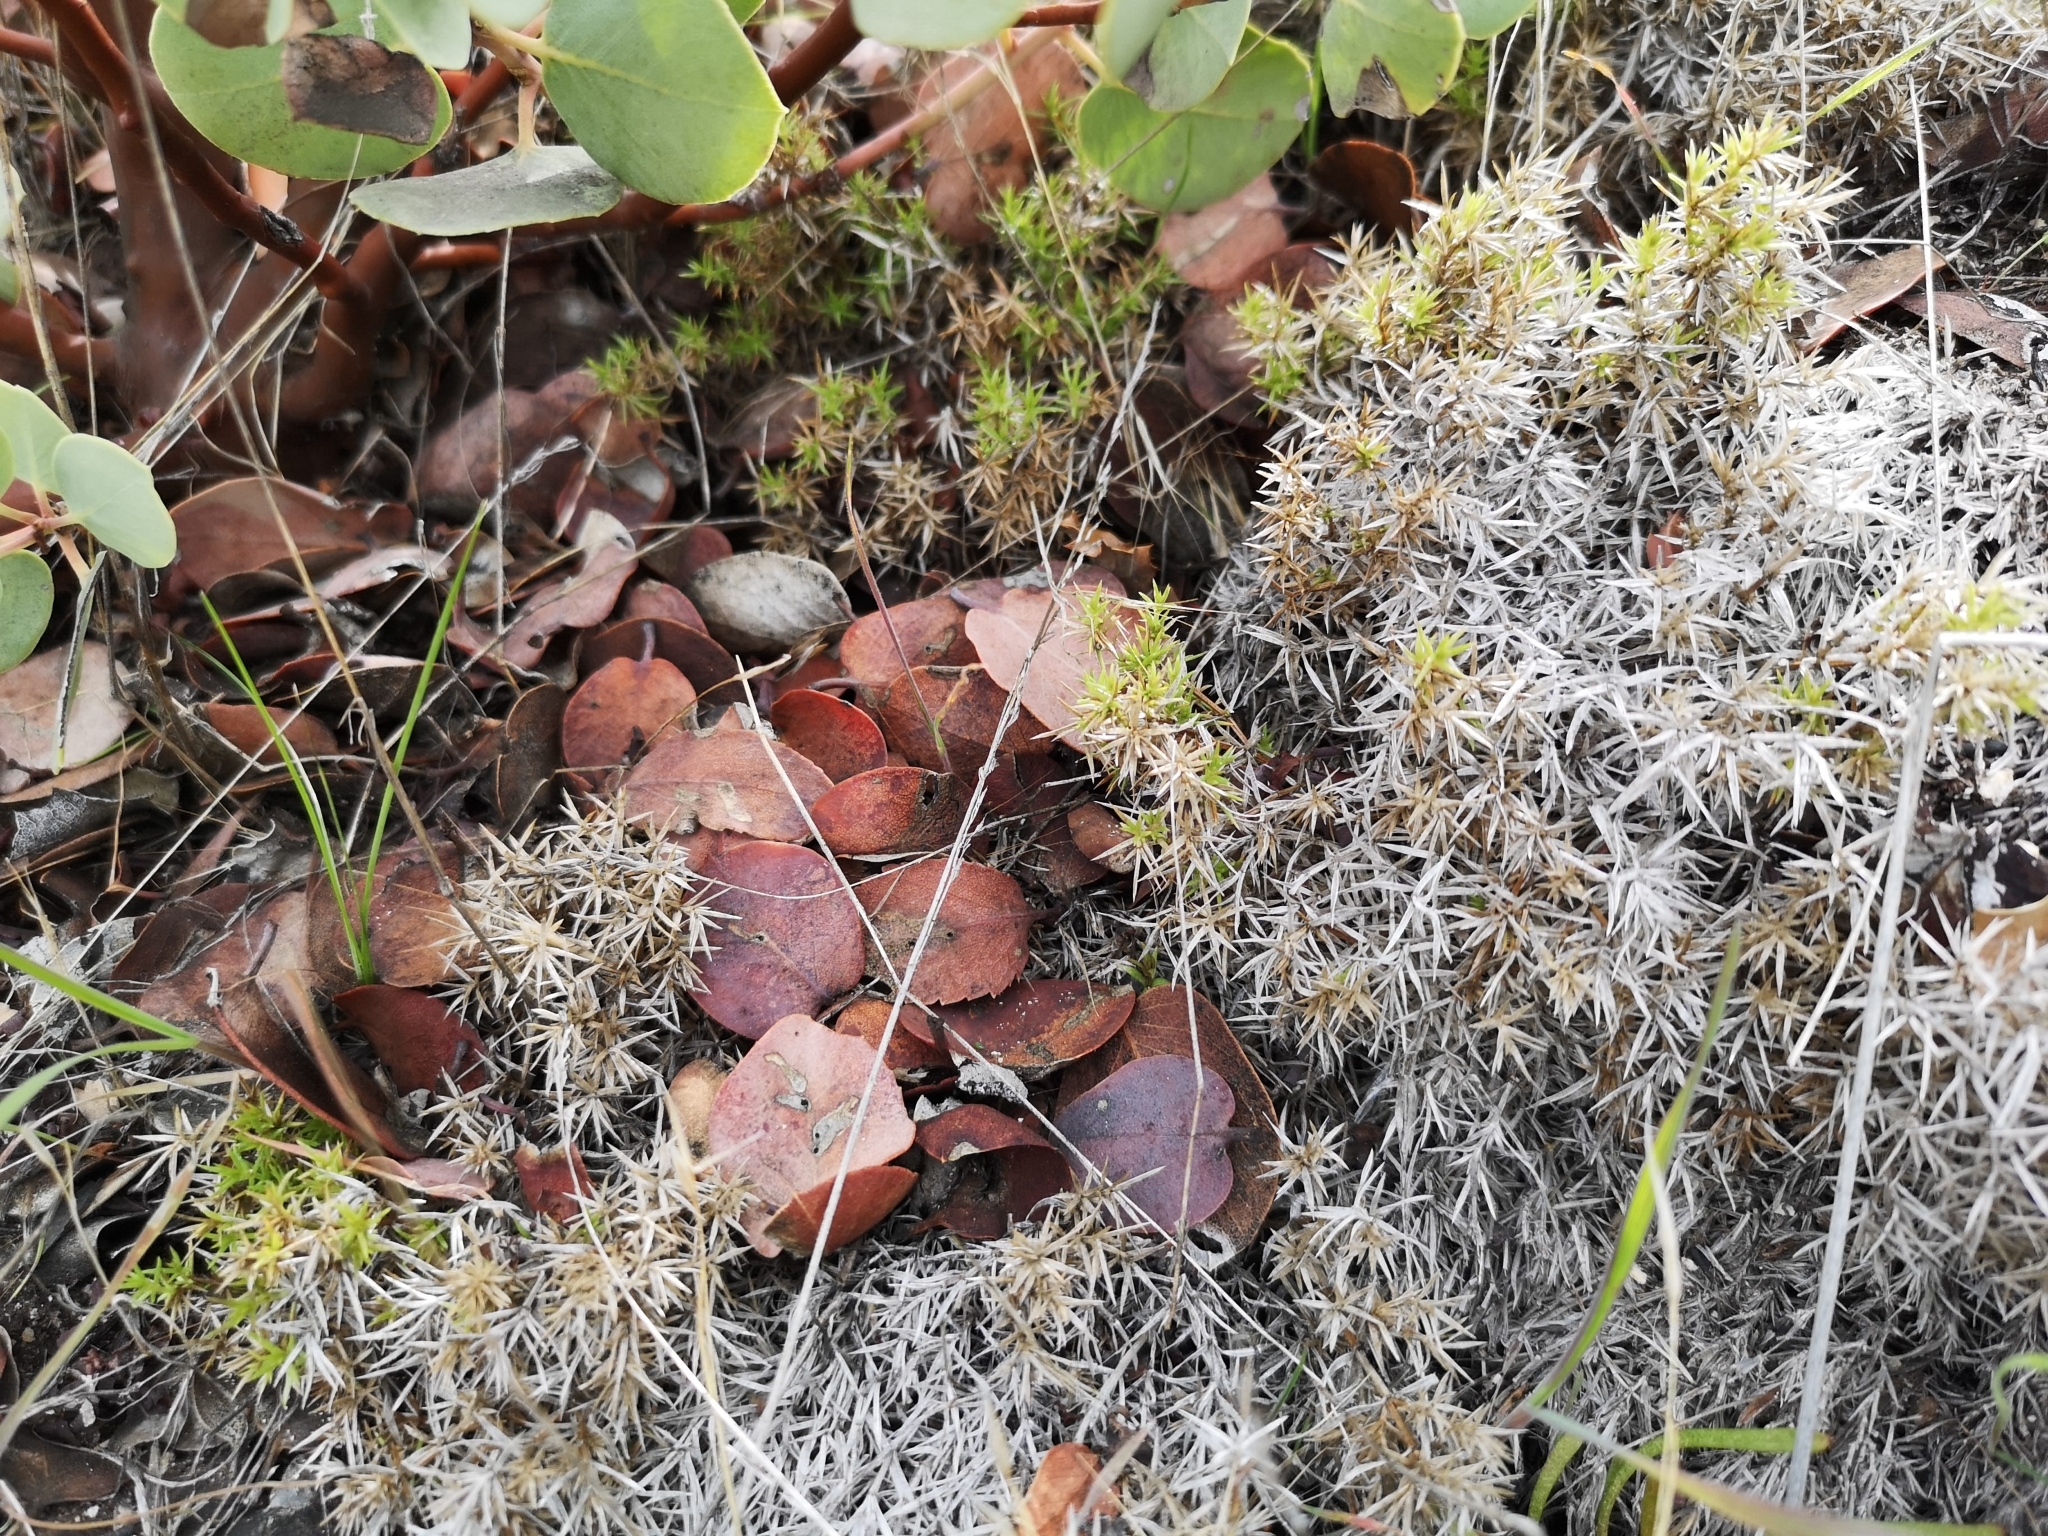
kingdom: Plantae
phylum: Tracheophyta
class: Magnoliopsida
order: Gentianales
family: Rubiaceae
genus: Galium
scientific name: Galium andrewsii
